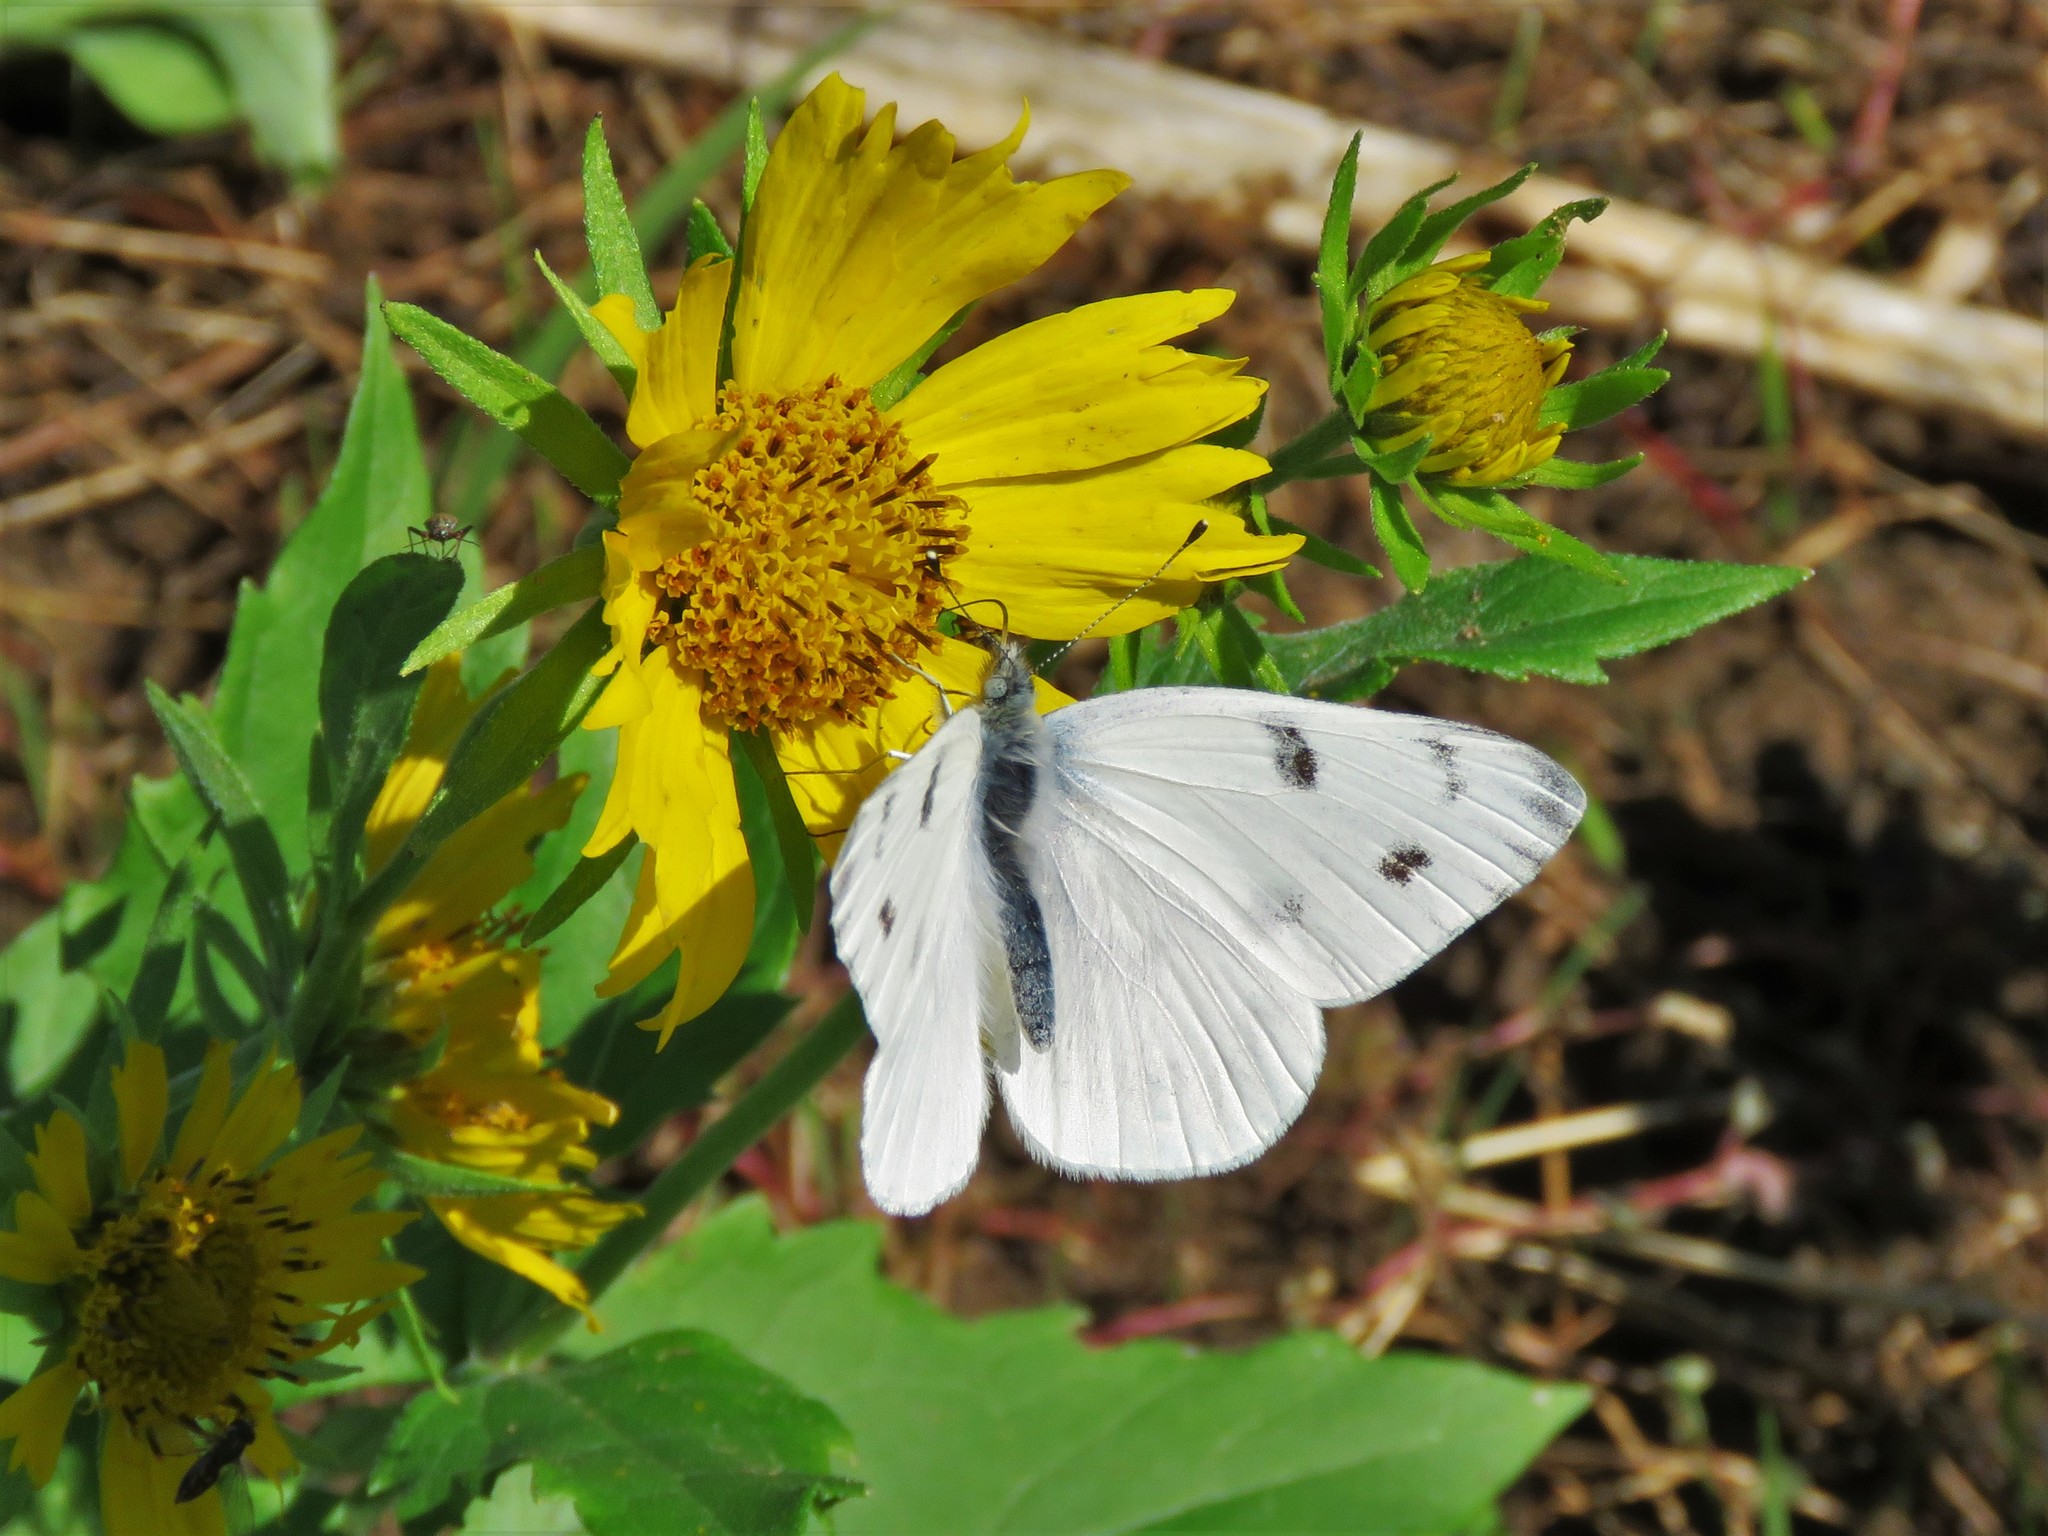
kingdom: Animalia
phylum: Arthropoda
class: Insecta
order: Lepidoptera
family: Pieridae
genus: Pontia
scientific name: Pontia protodice
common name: Checkered white
